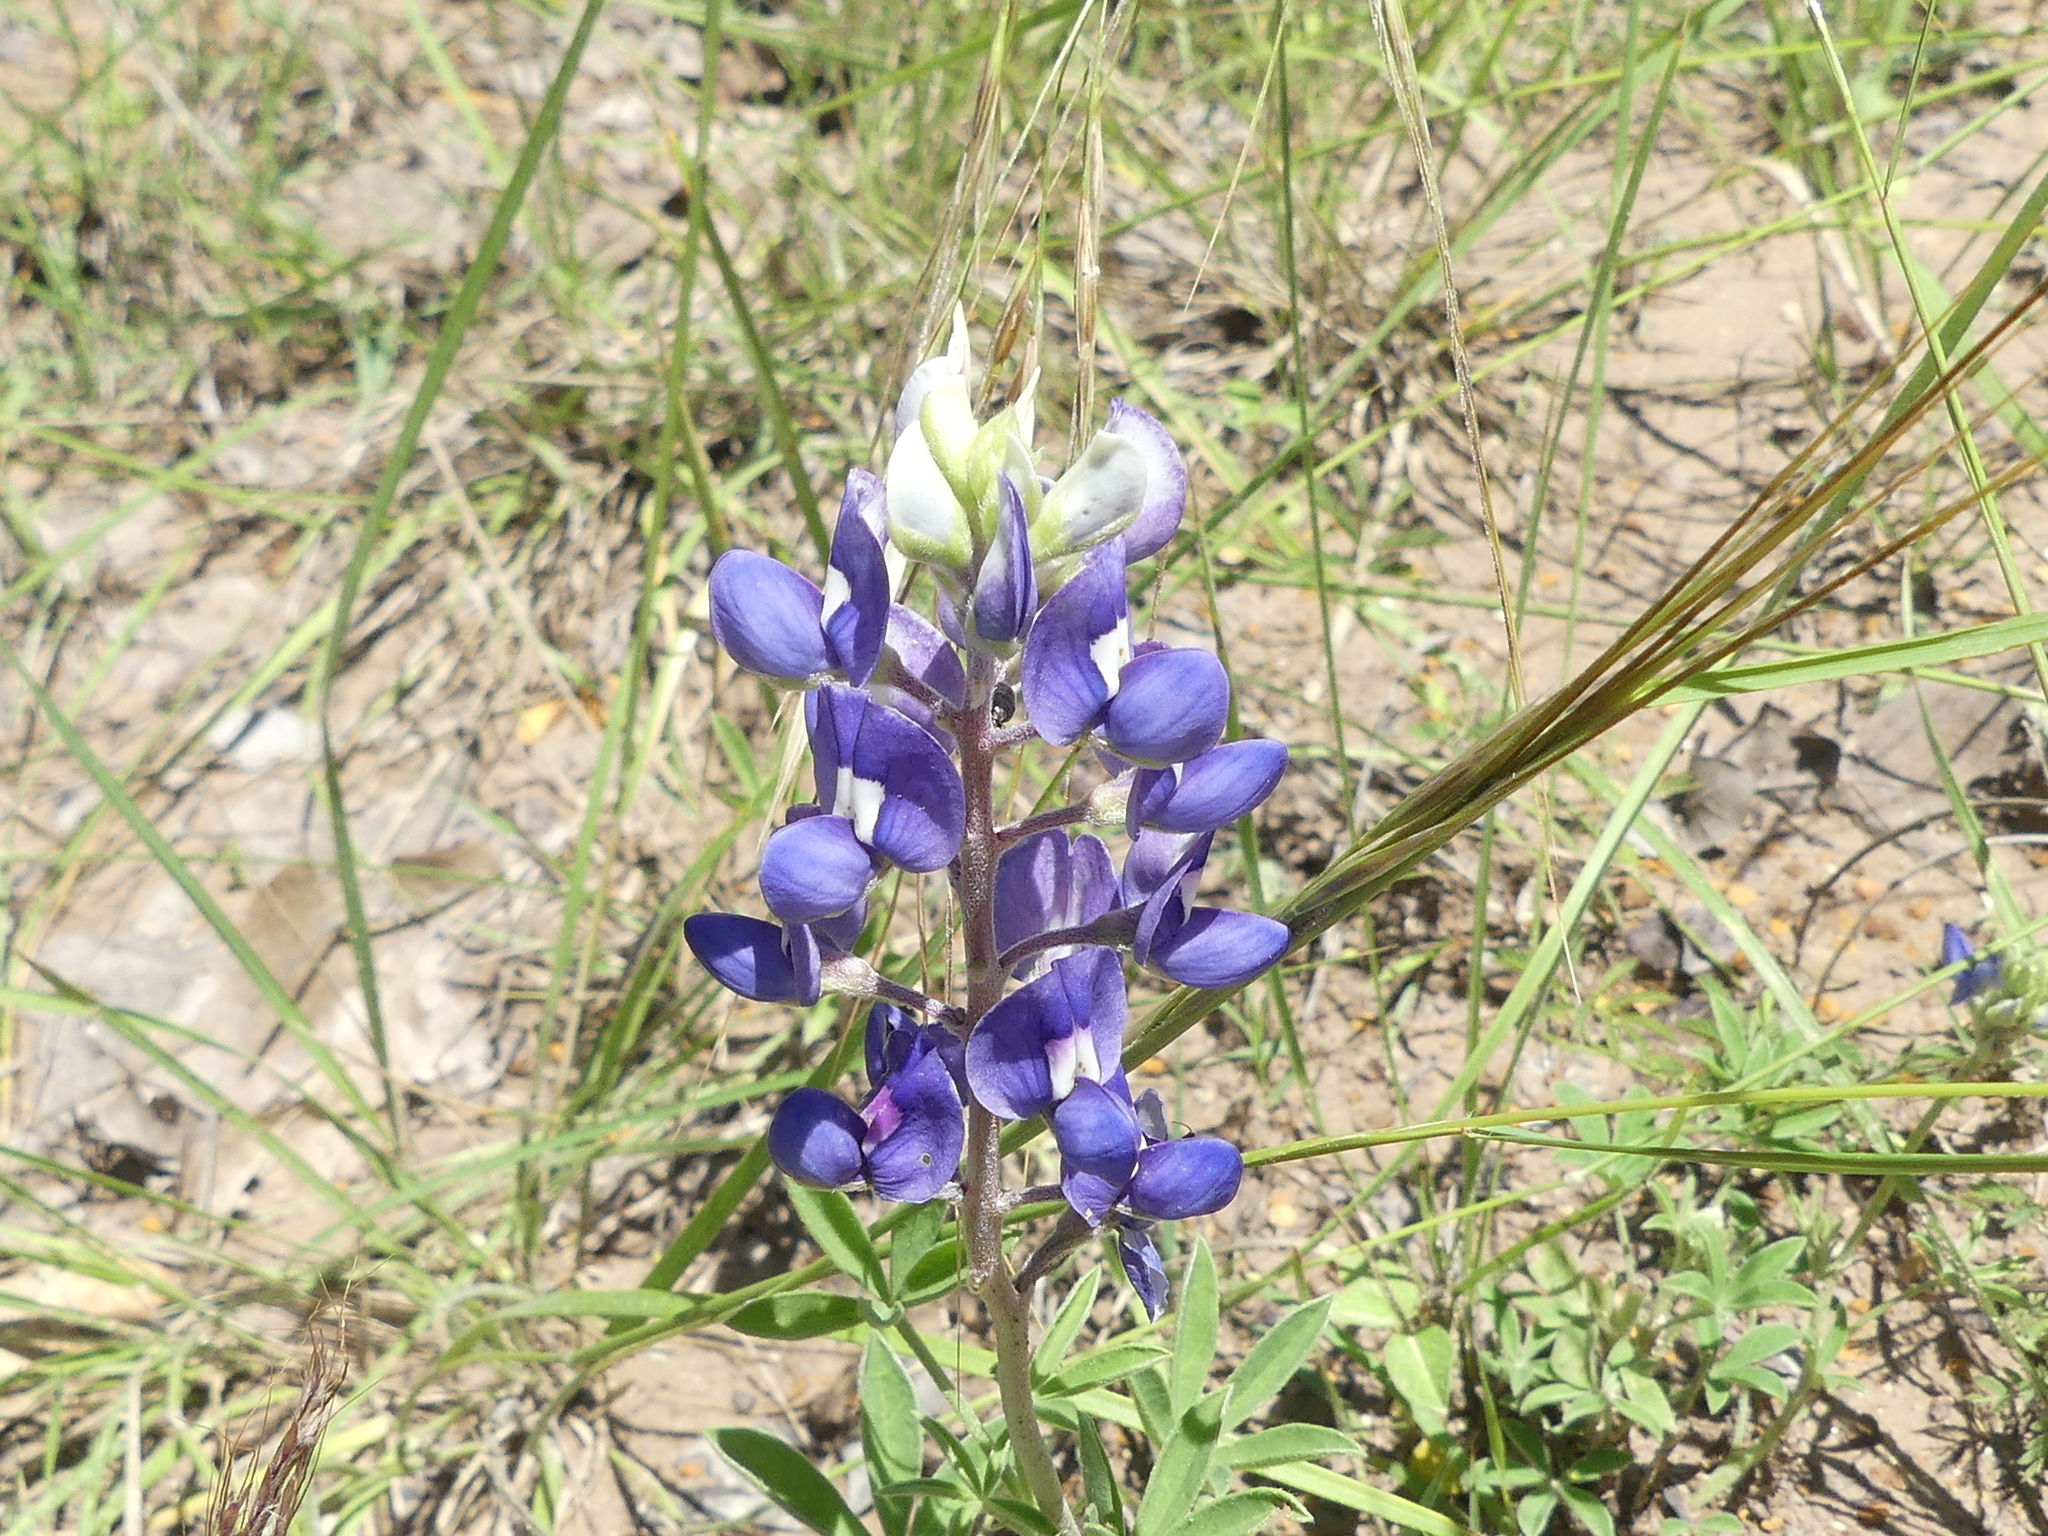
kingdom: Plantae
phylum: Tracheophyta
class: Magnoliopsida
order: Fabales
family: Fabaceae
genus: Lupinus
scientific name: Lupinus texensis
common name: Texas bluebonnet
